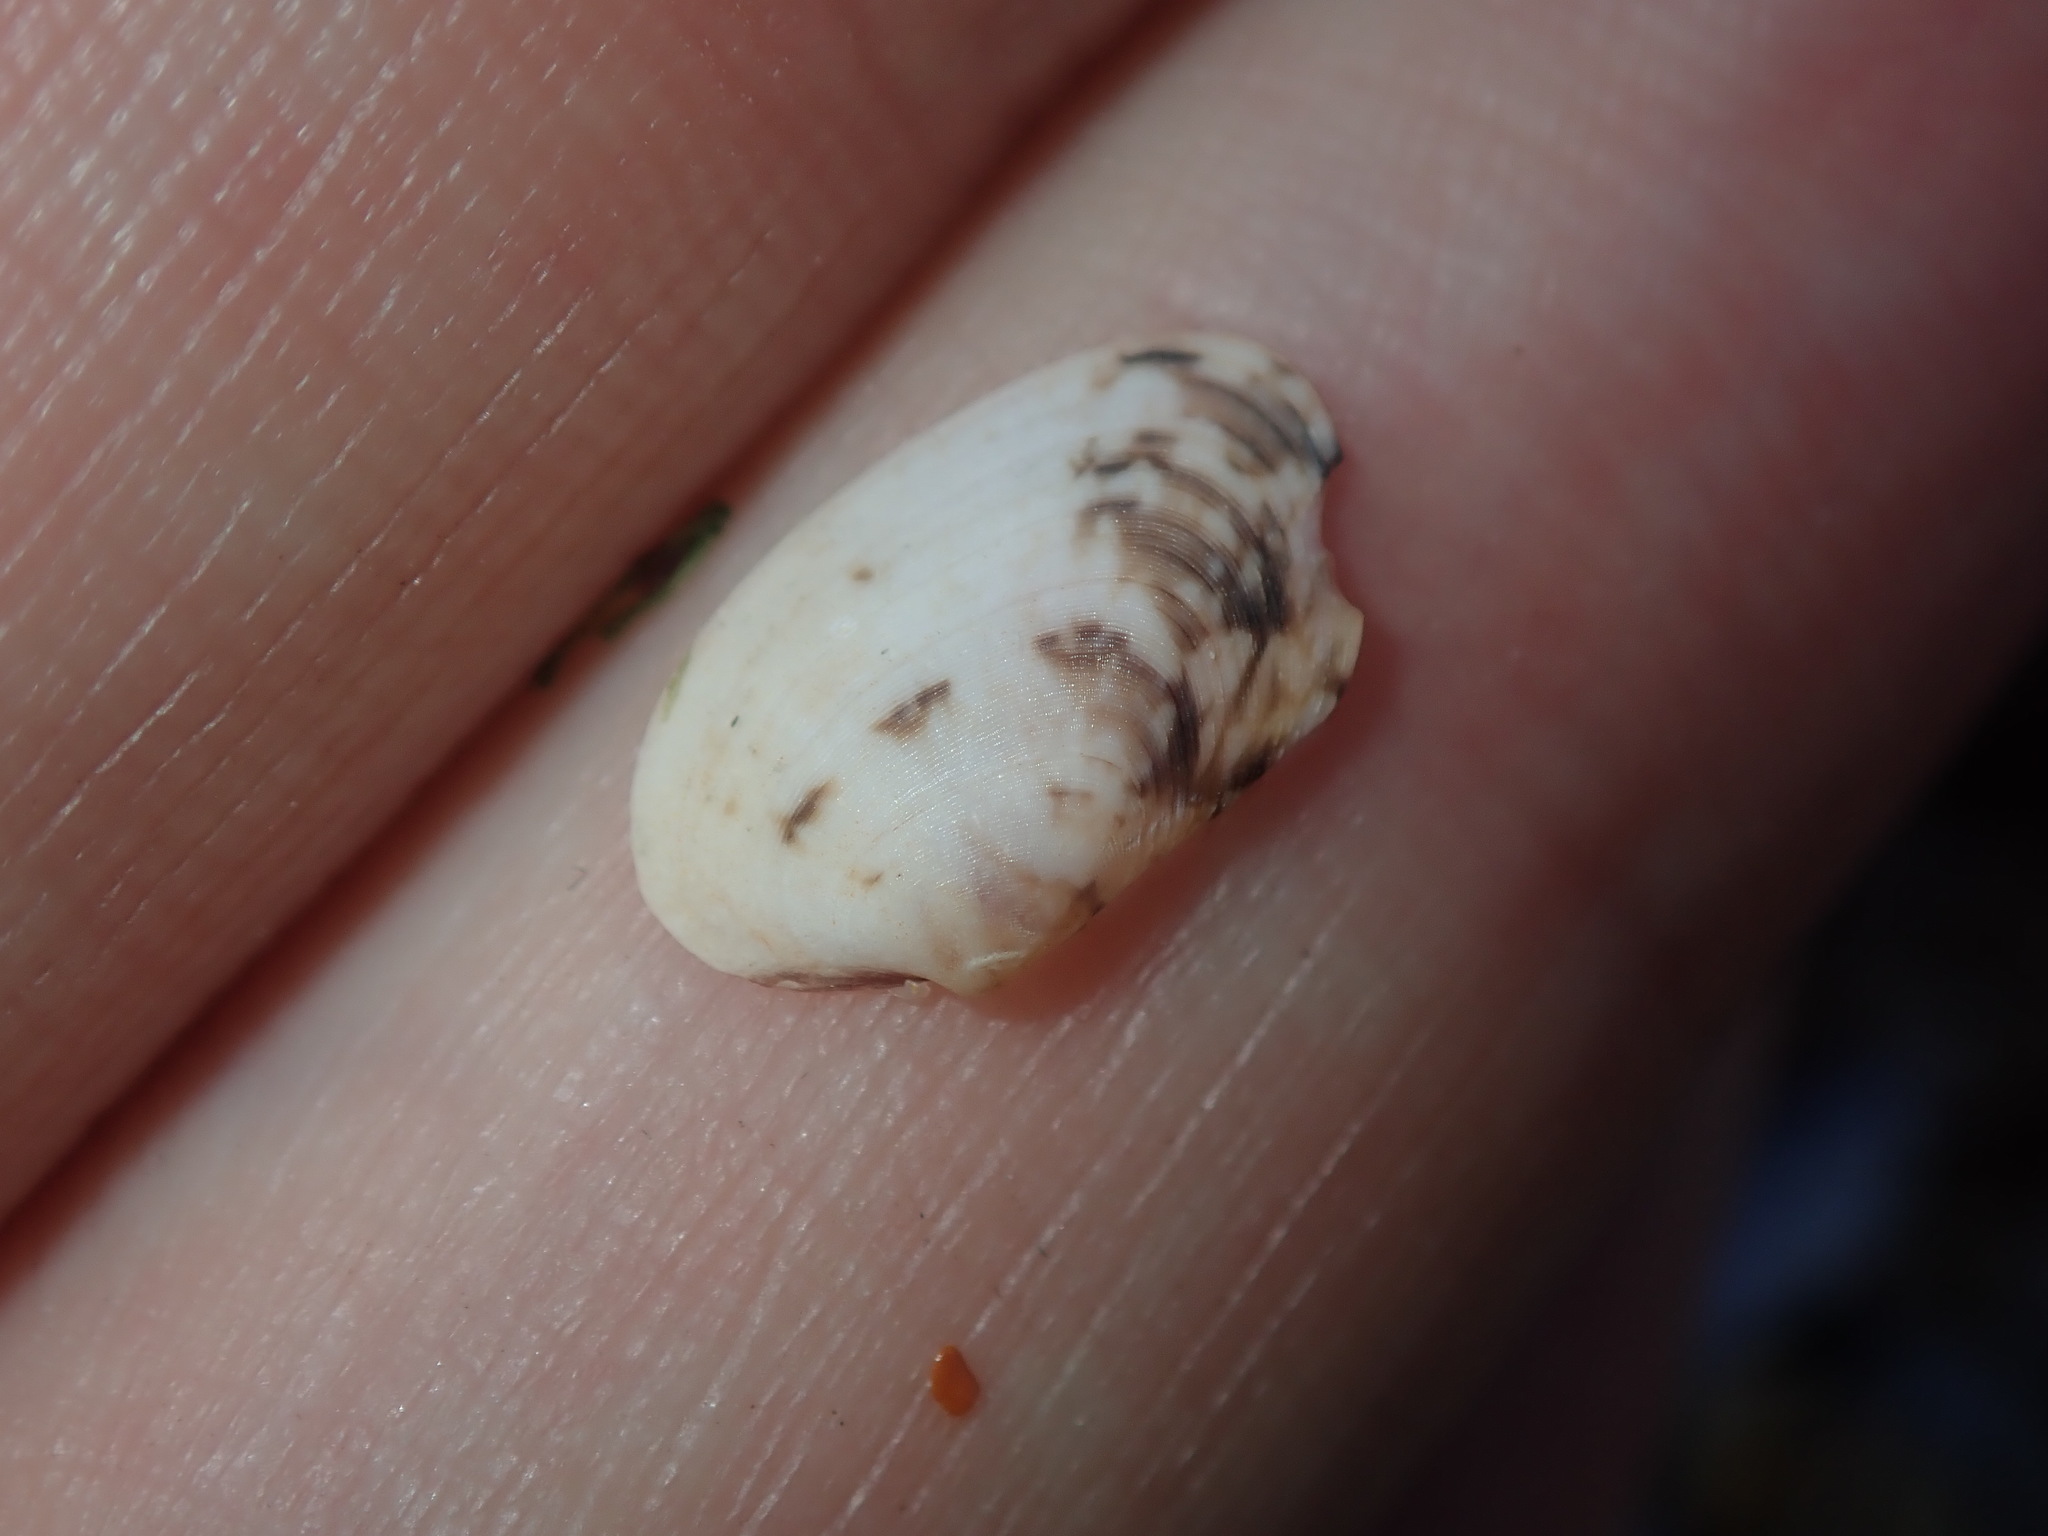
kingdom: Animalia
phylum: Mollusca
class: Bivalvia
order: Venerida
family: Veneridae
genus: Venerupis
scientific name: Venerupis anomala
